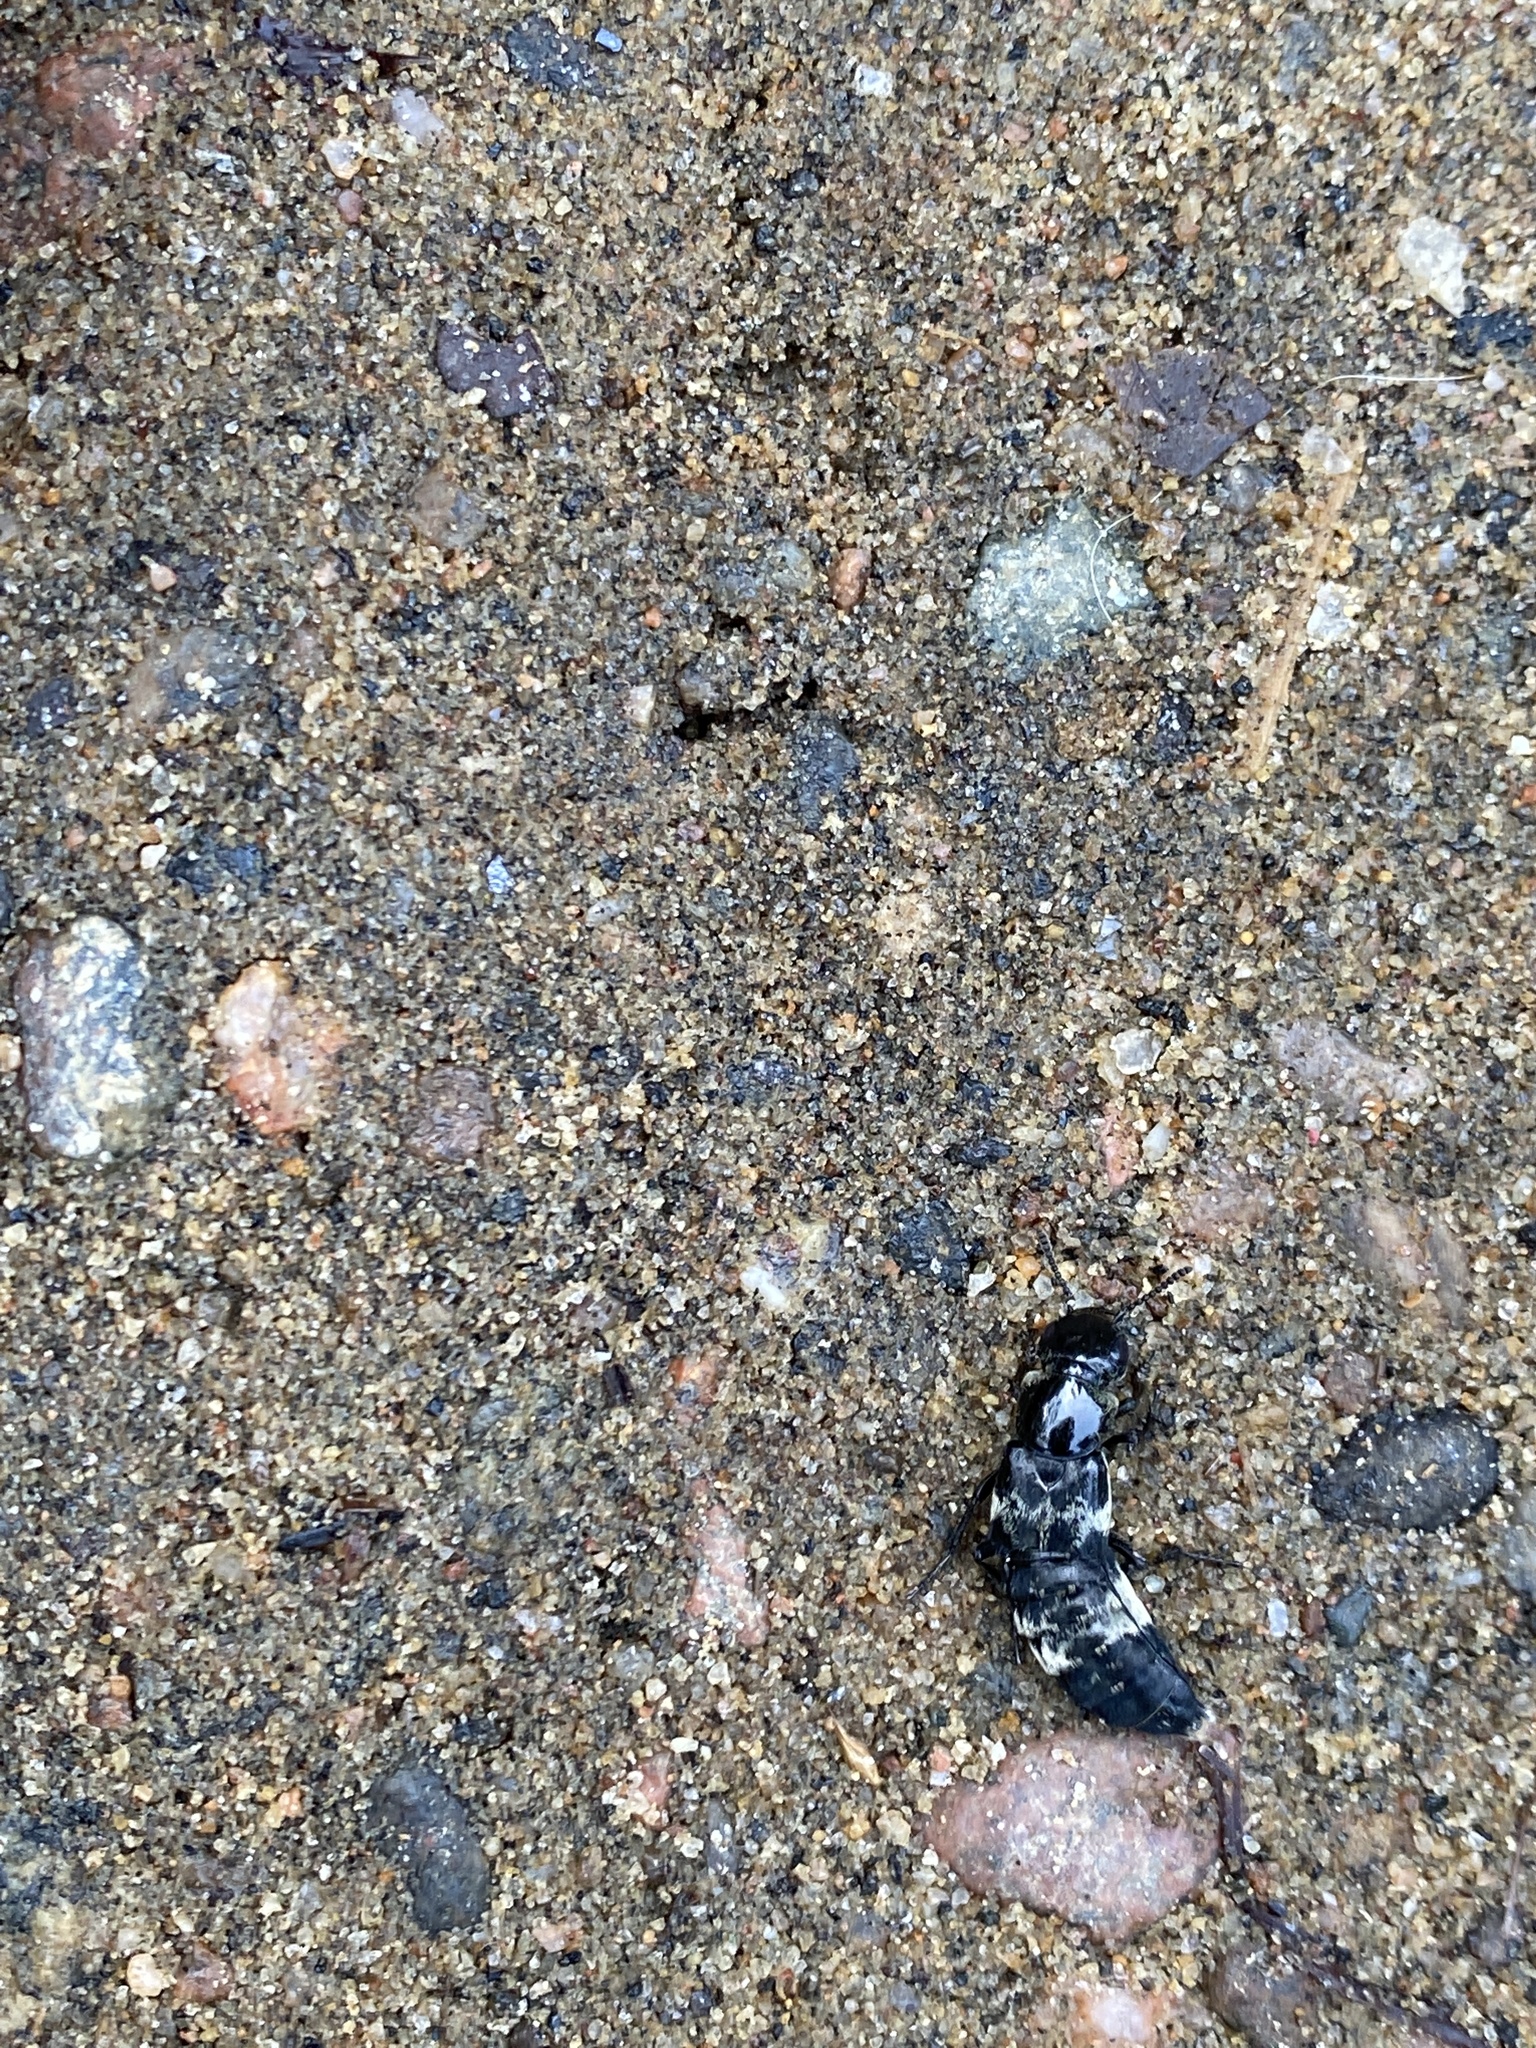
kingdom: Animalia
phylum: Arthropoda
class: Insecta
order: Coleoptera
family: Staphylinidae
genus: Creophilus
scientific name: Creophilus maxillosus
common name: Hairy rove beetle
